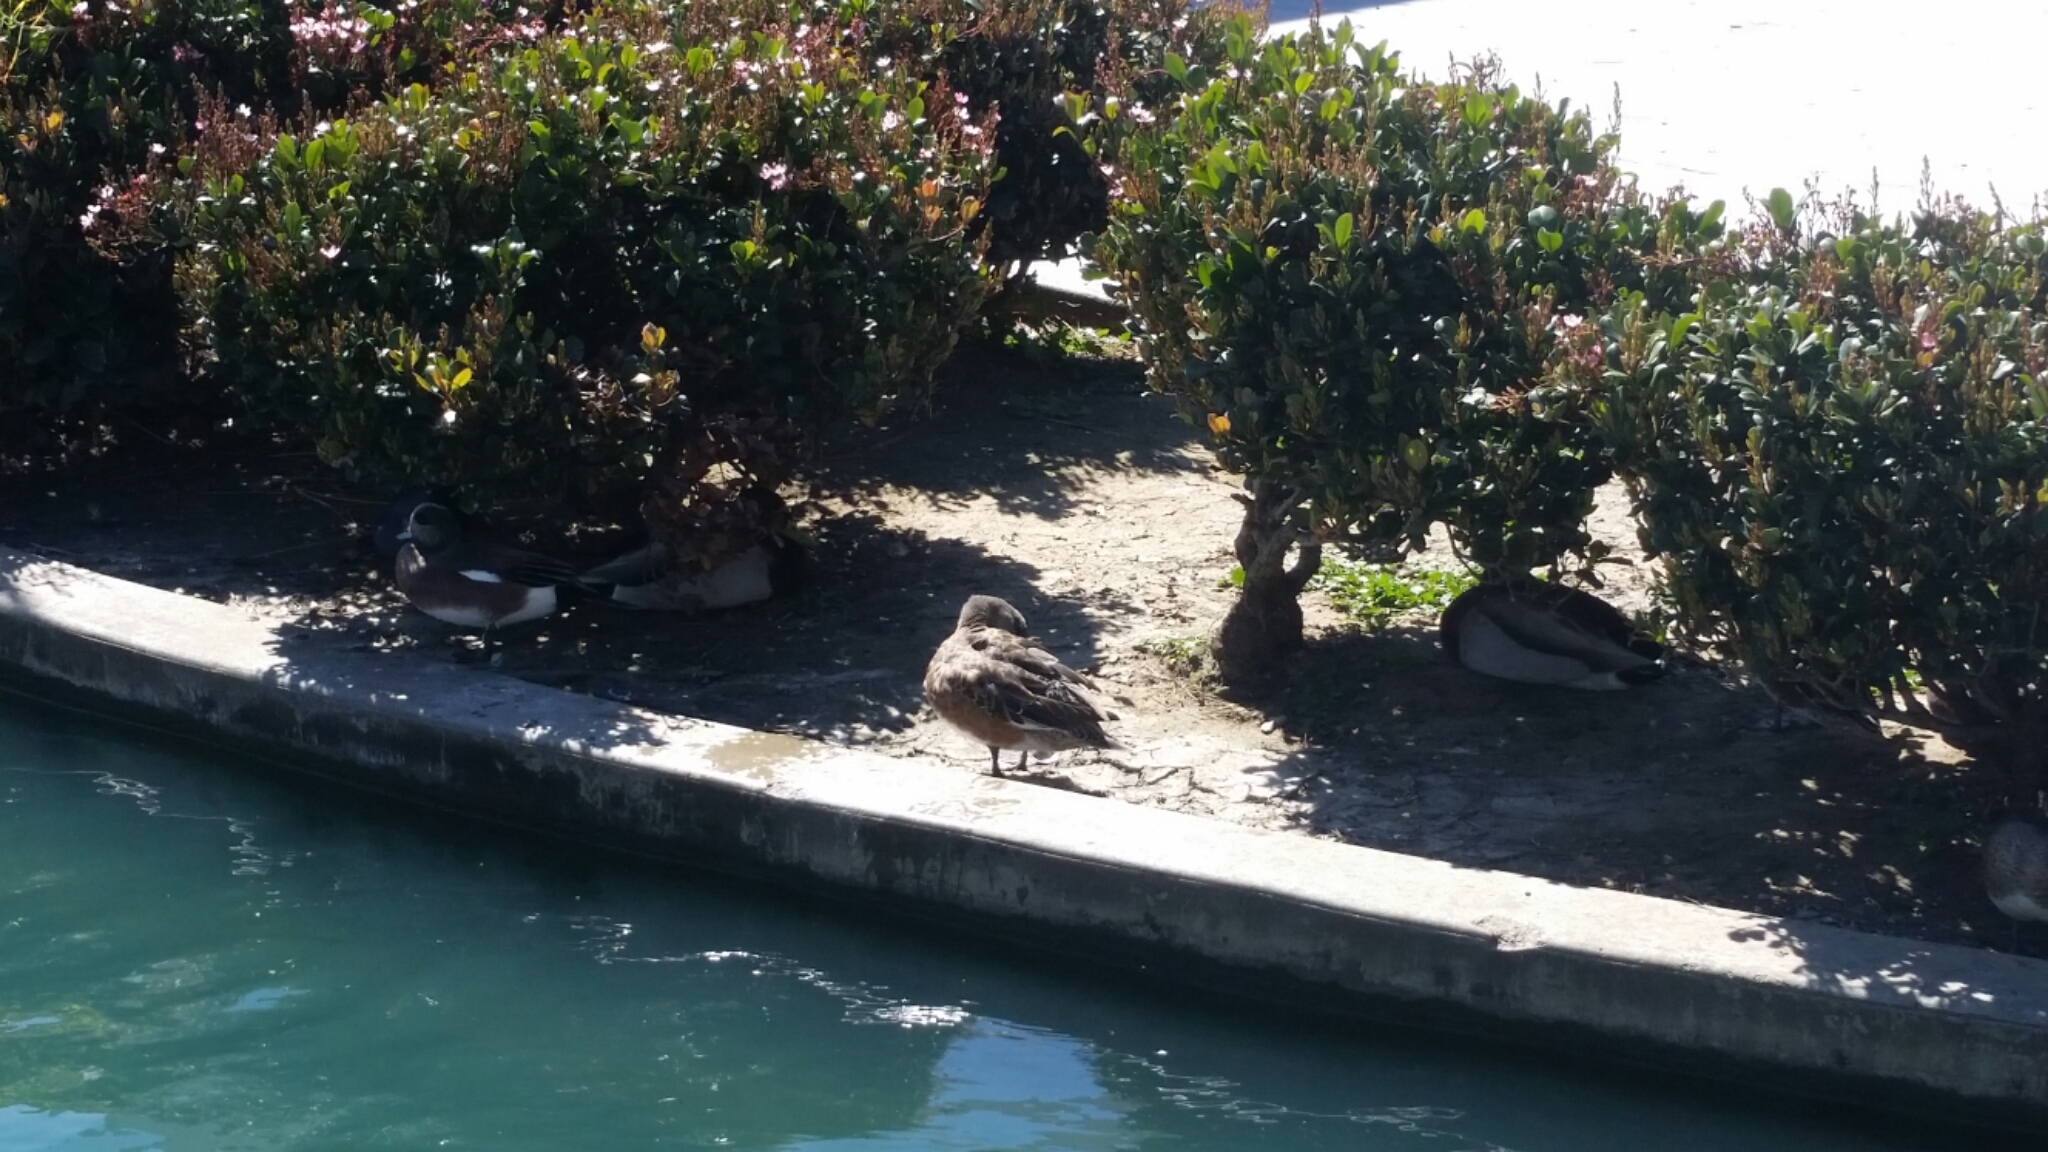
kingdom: Animalia
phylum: Chordata
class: Aves
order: Anseriformes
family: Anatidae
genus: Mareca
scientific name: Mareca americana
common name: American wigeon
